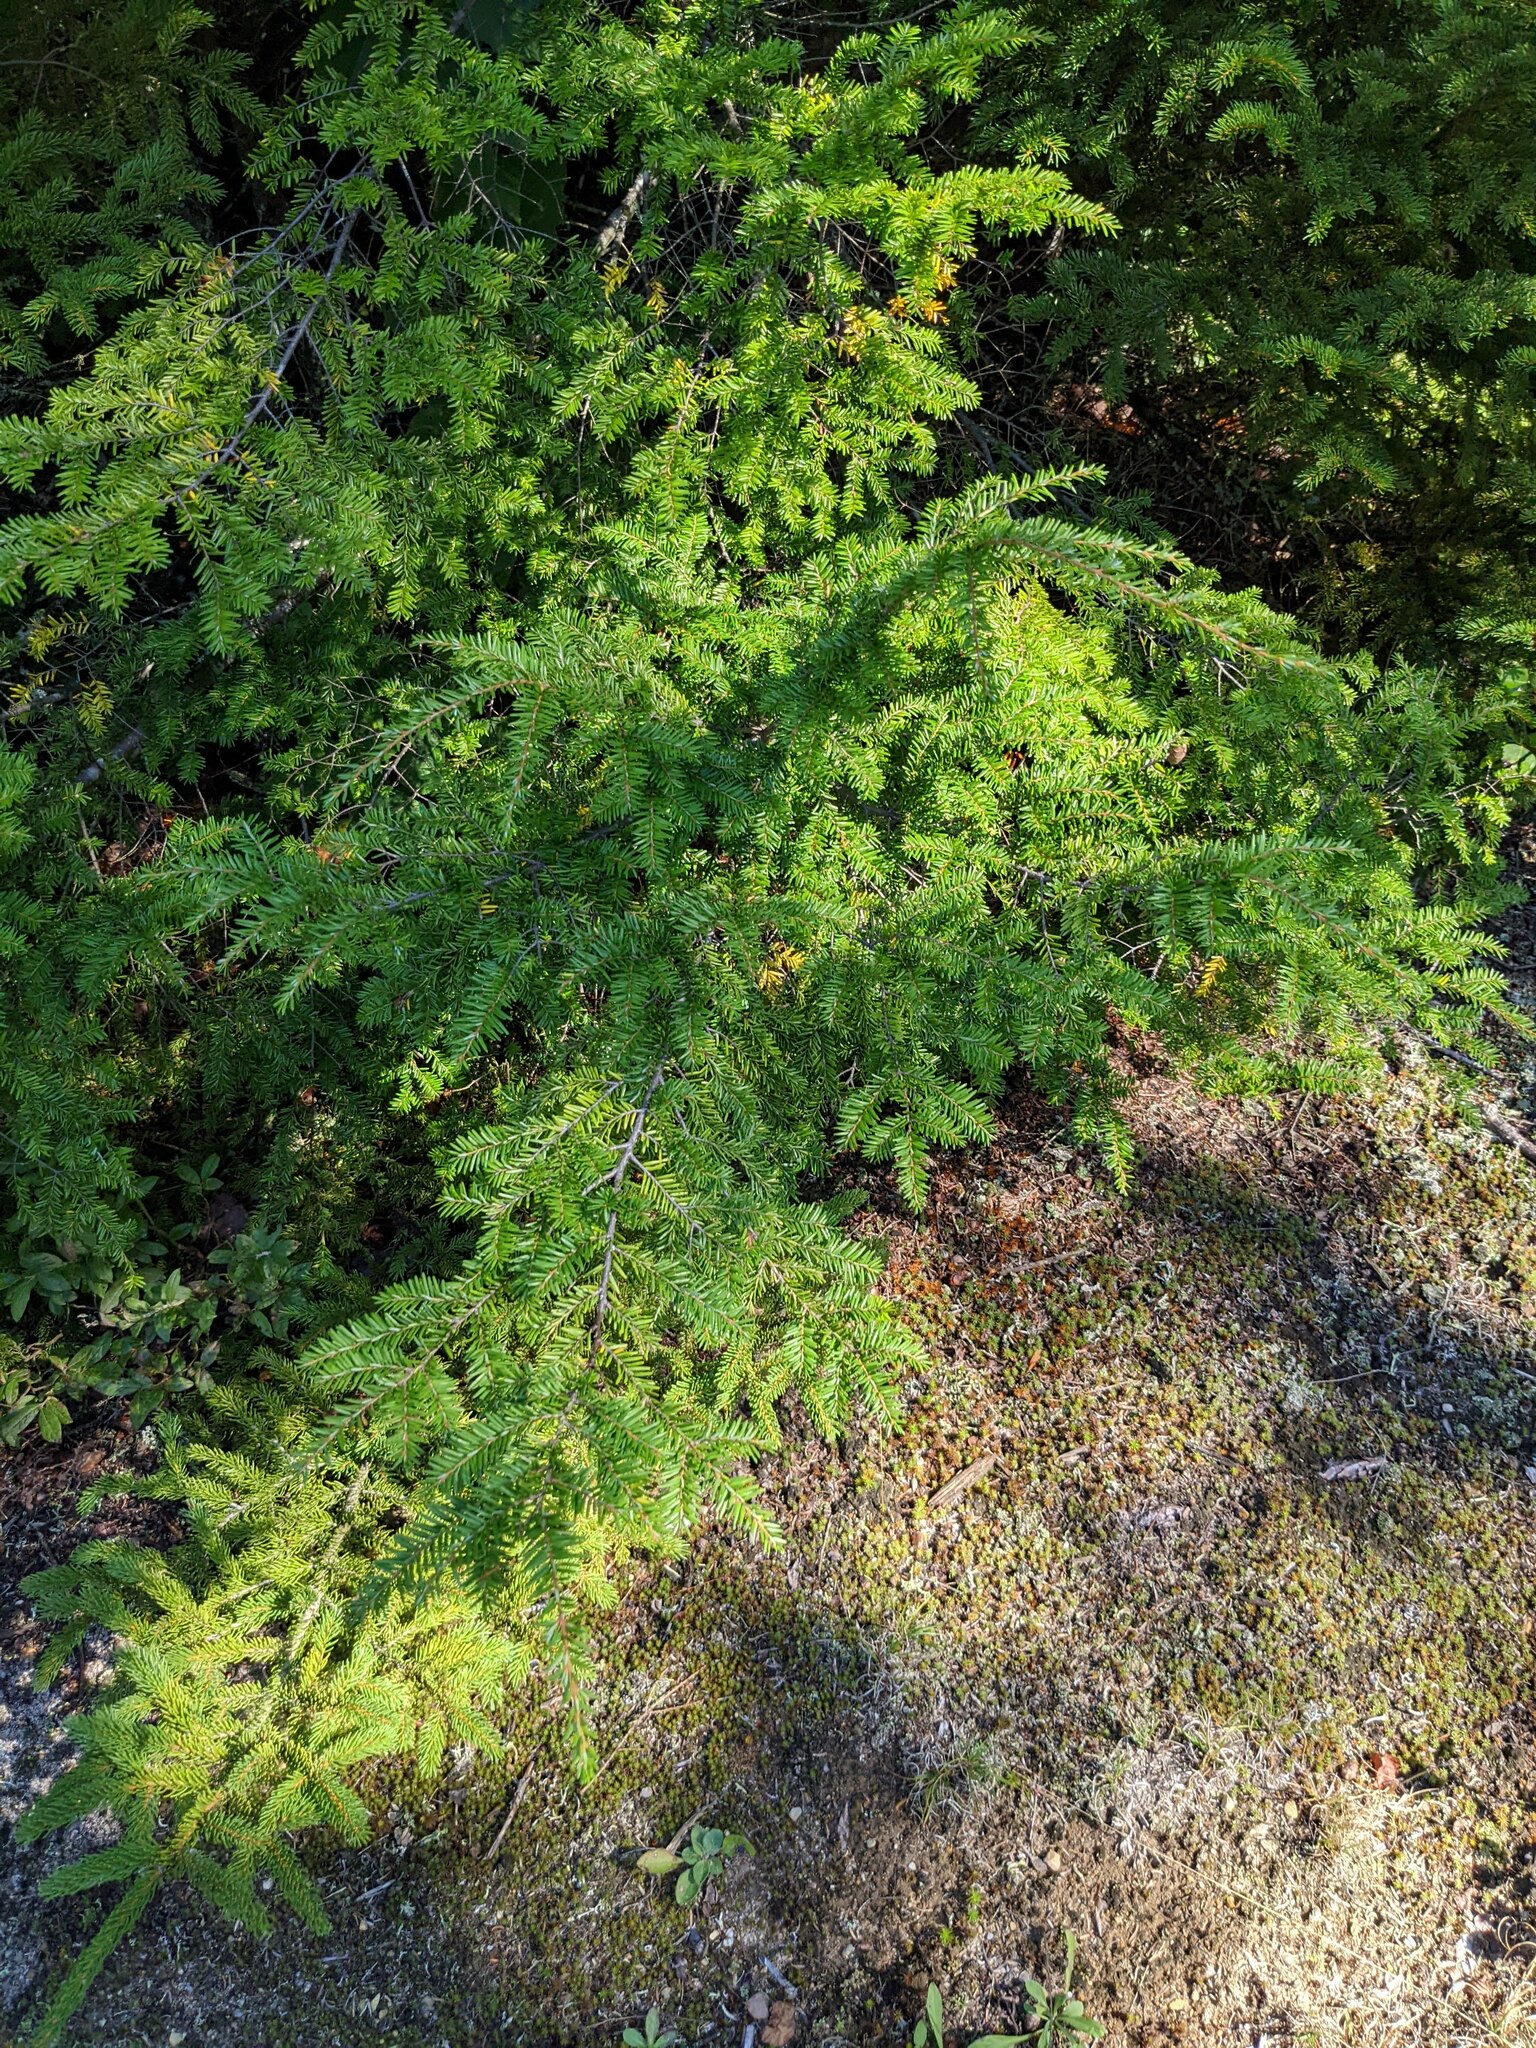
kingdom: Plantae
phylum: Tracheophyta
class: Pinopsida
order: Pinales
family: Pinaceae
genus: Tsuga
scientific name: Tsuga canadensis
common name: Eastern hemlock
